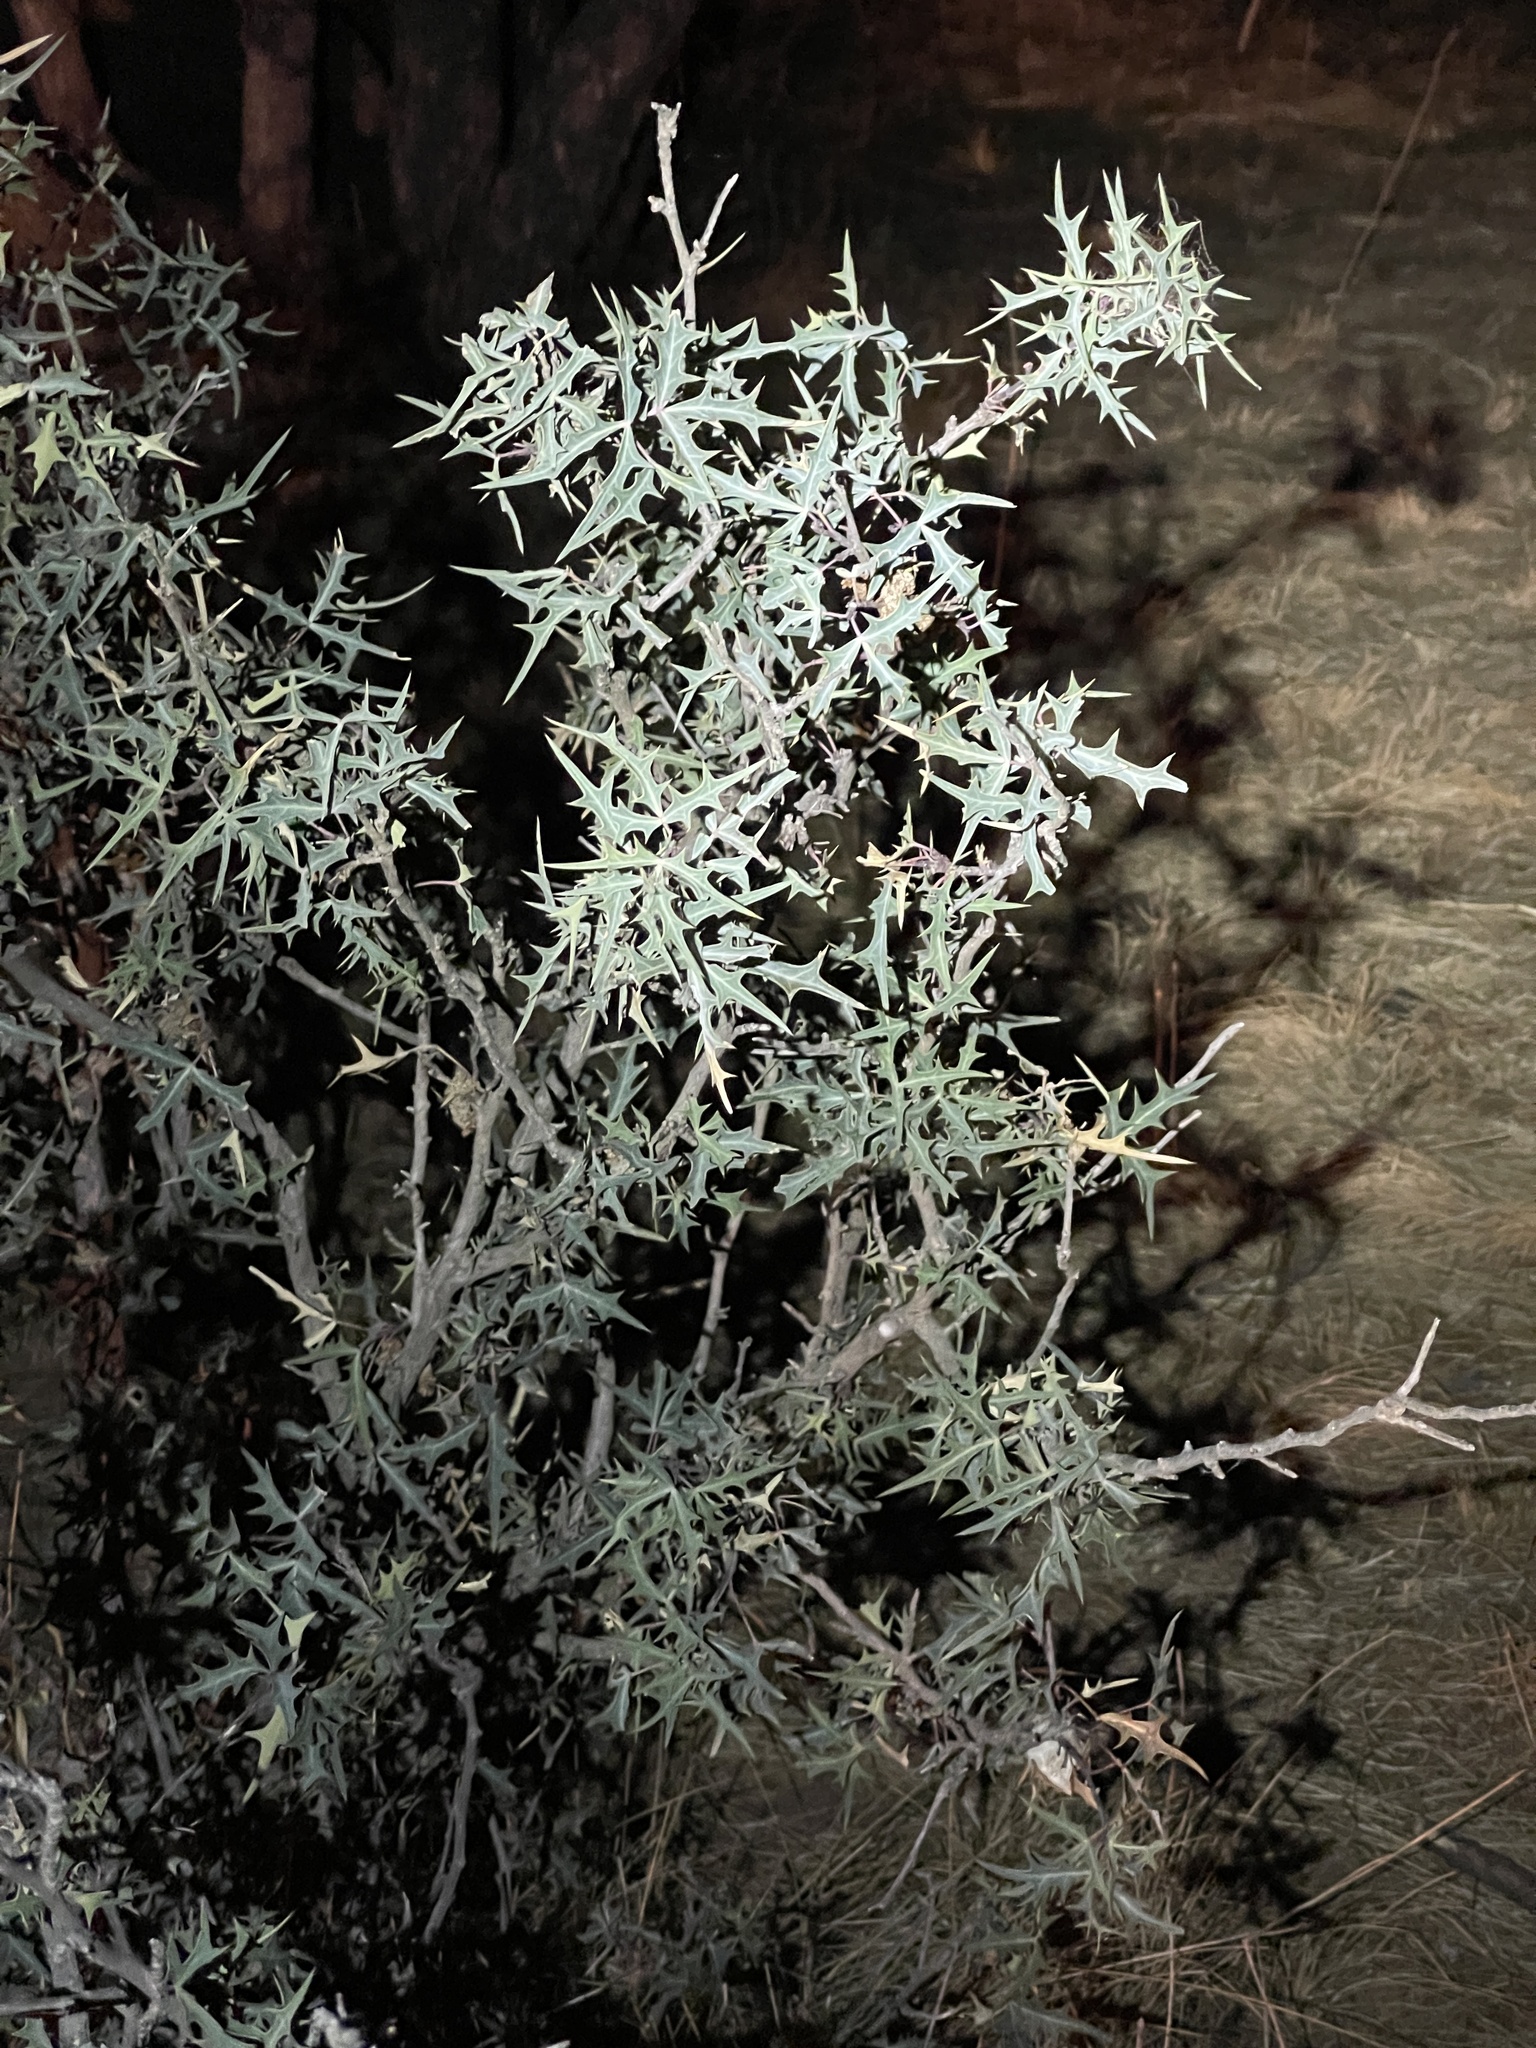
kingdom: Plantae
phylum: Tracheophyta
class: Magnoliopsida
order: Ranunculales
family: Berberidaceae
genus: Alloberberis
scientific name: Alloberberis trifoliolata
